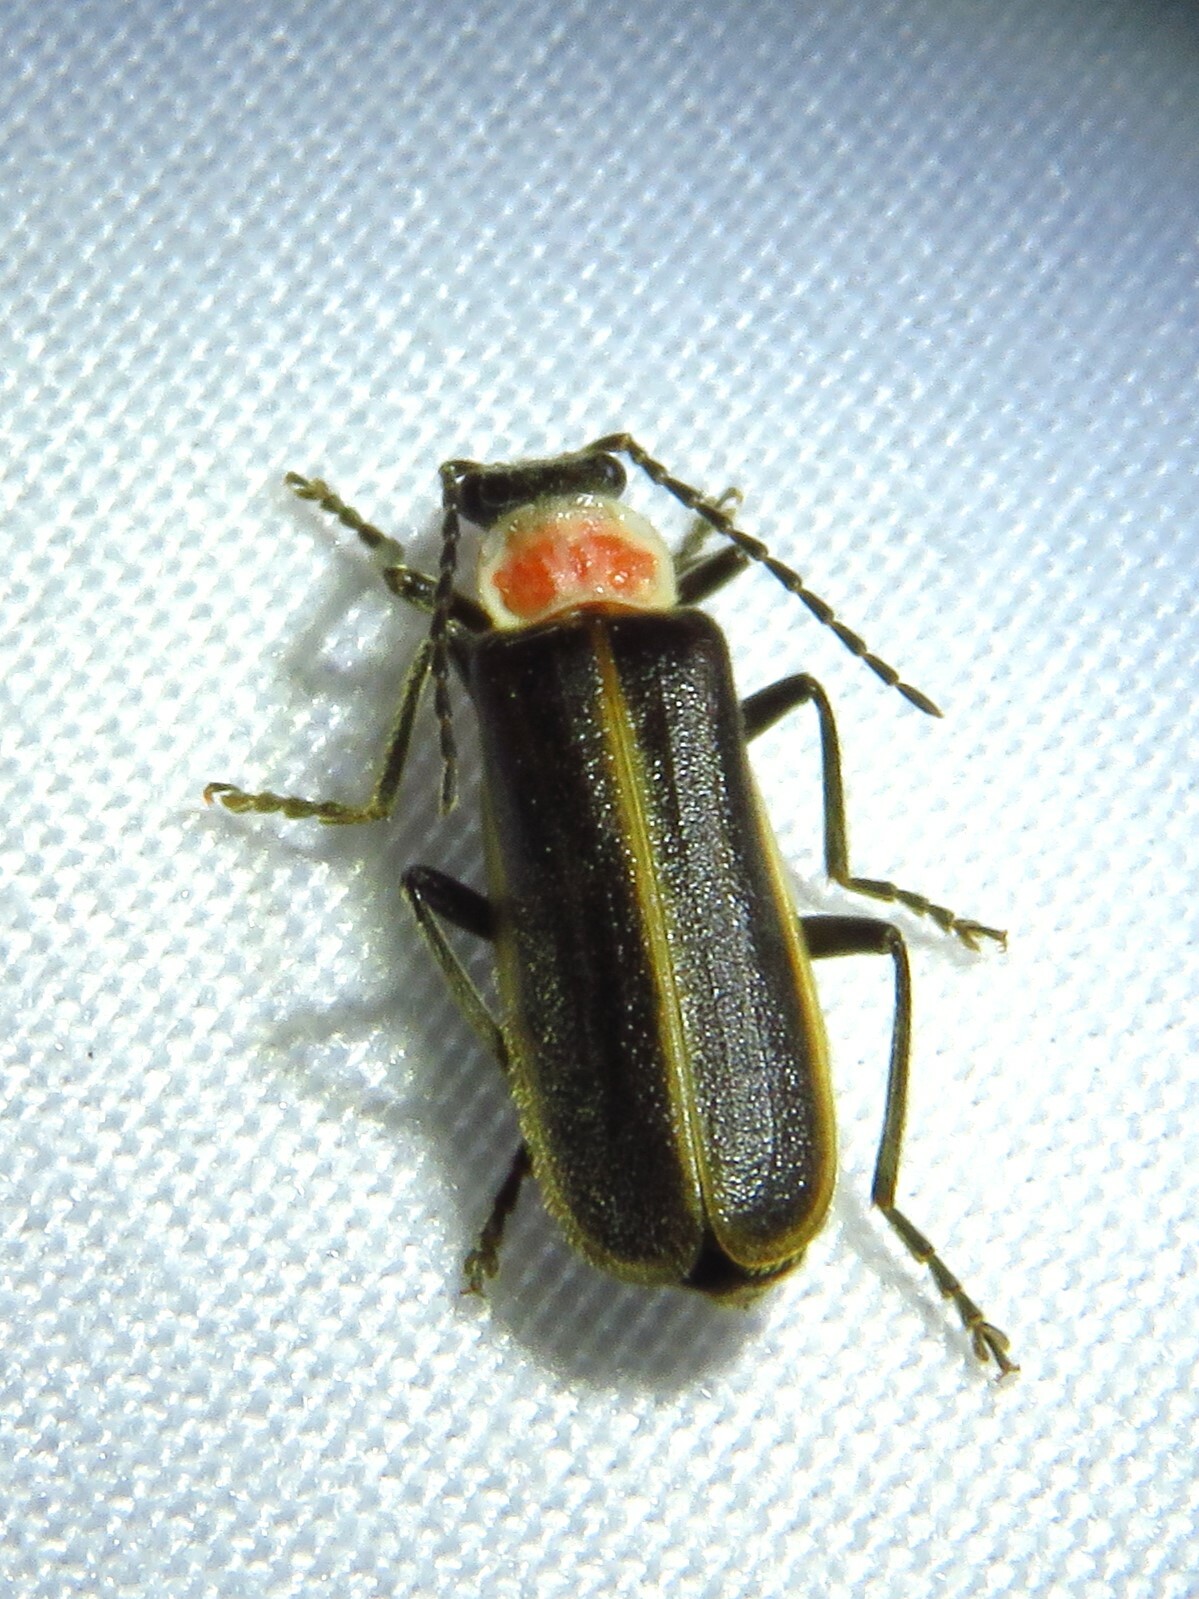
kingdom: Animalia
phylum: Arthropoda
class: Insecta
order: Coleoptera
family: Cantharidae
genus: Podabrus
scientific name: Podabrus quadratus
